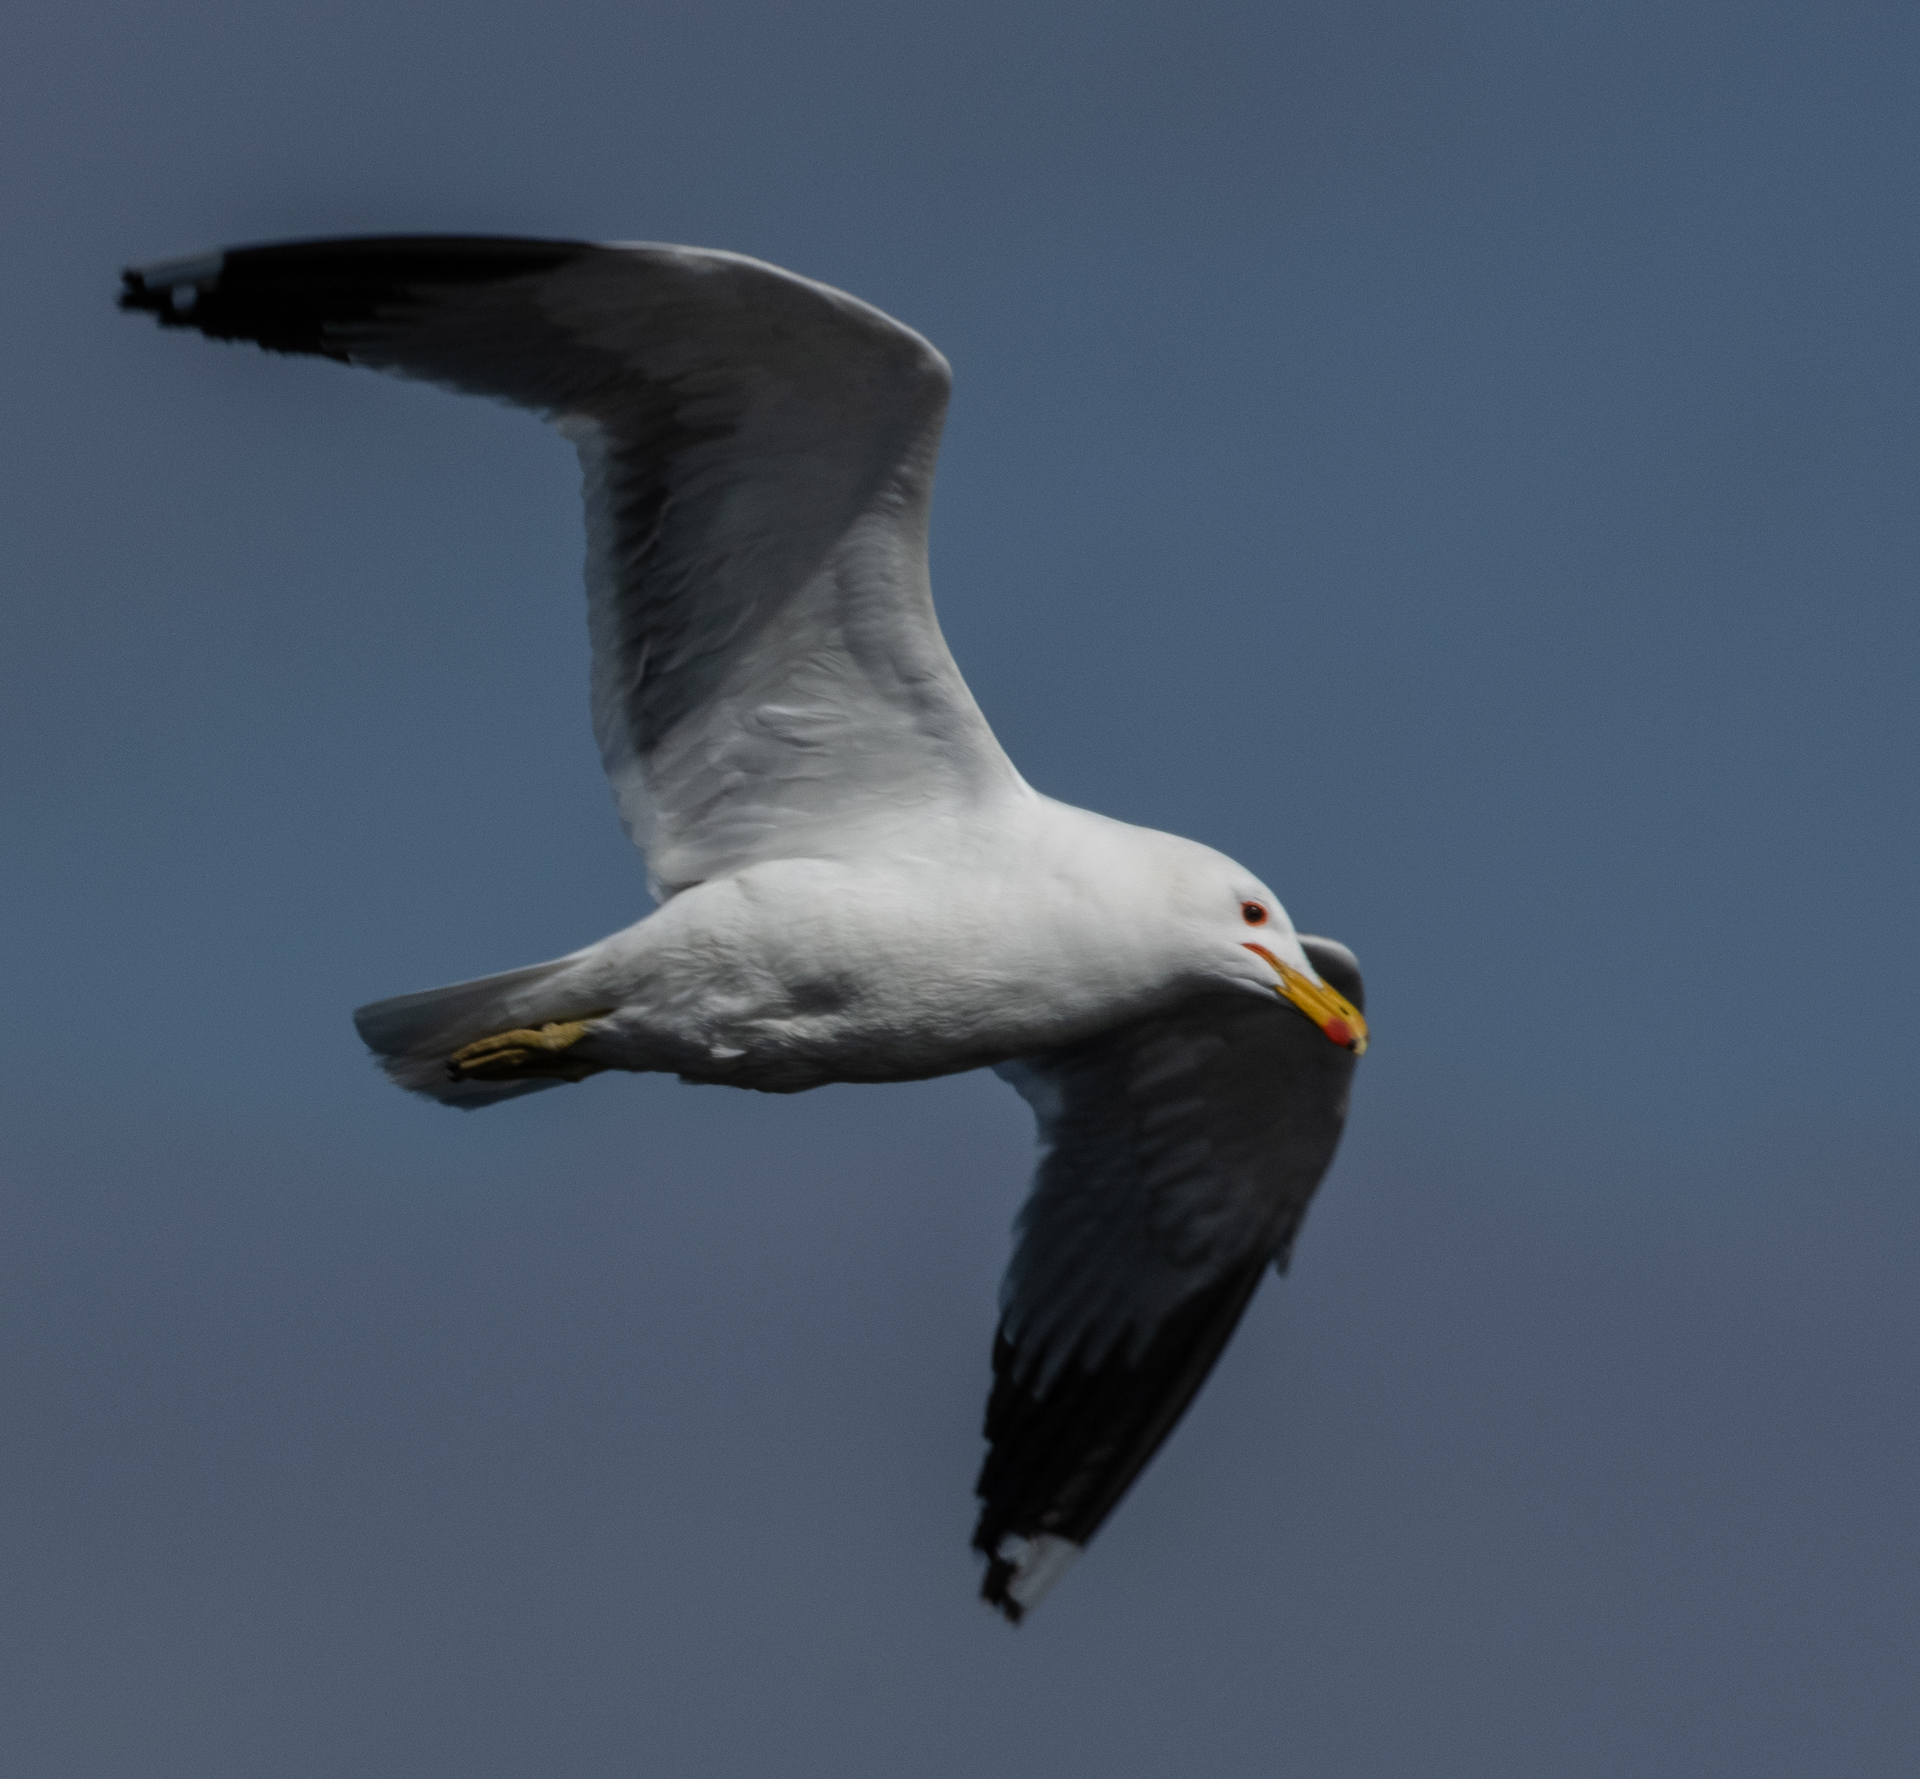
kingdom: Animalia
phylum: Chordata
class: Aves
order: Charadriiformes
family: Laridae
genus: Larus
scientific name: Larus californicus
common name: California gull
